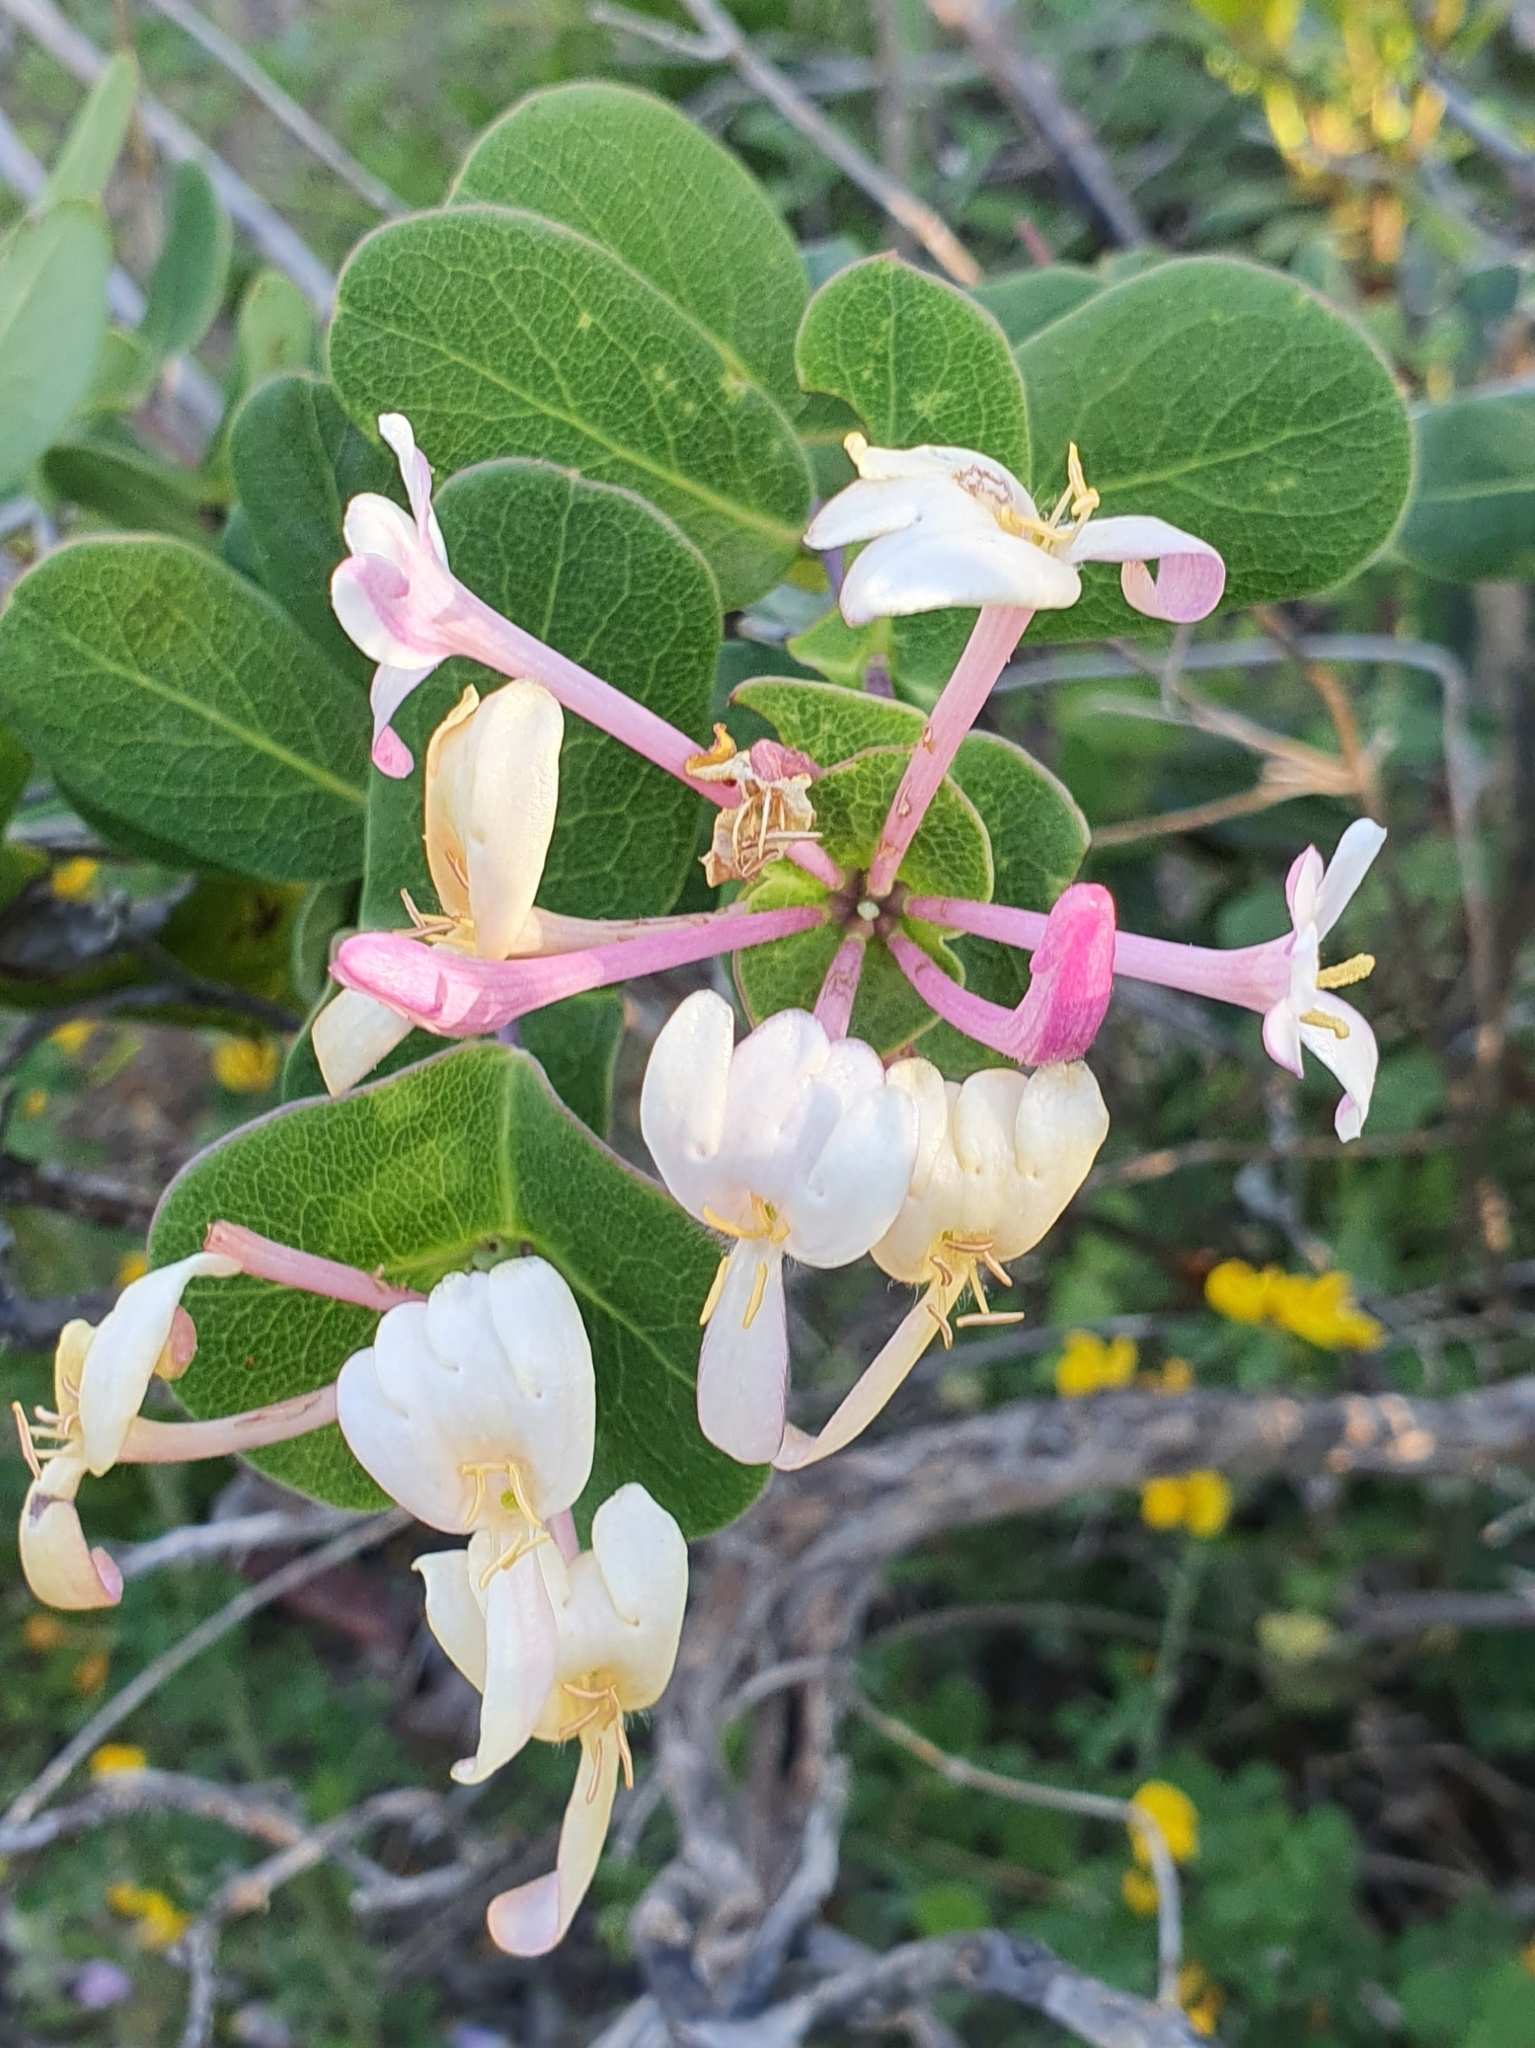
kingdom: Plantae
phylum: Tracheophyta
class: Magnoliopsida
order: Dipsacales
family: Caprifoliaceae
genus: Lonicera
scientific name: Lonicera implexa
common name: Minorca honeysuckle
